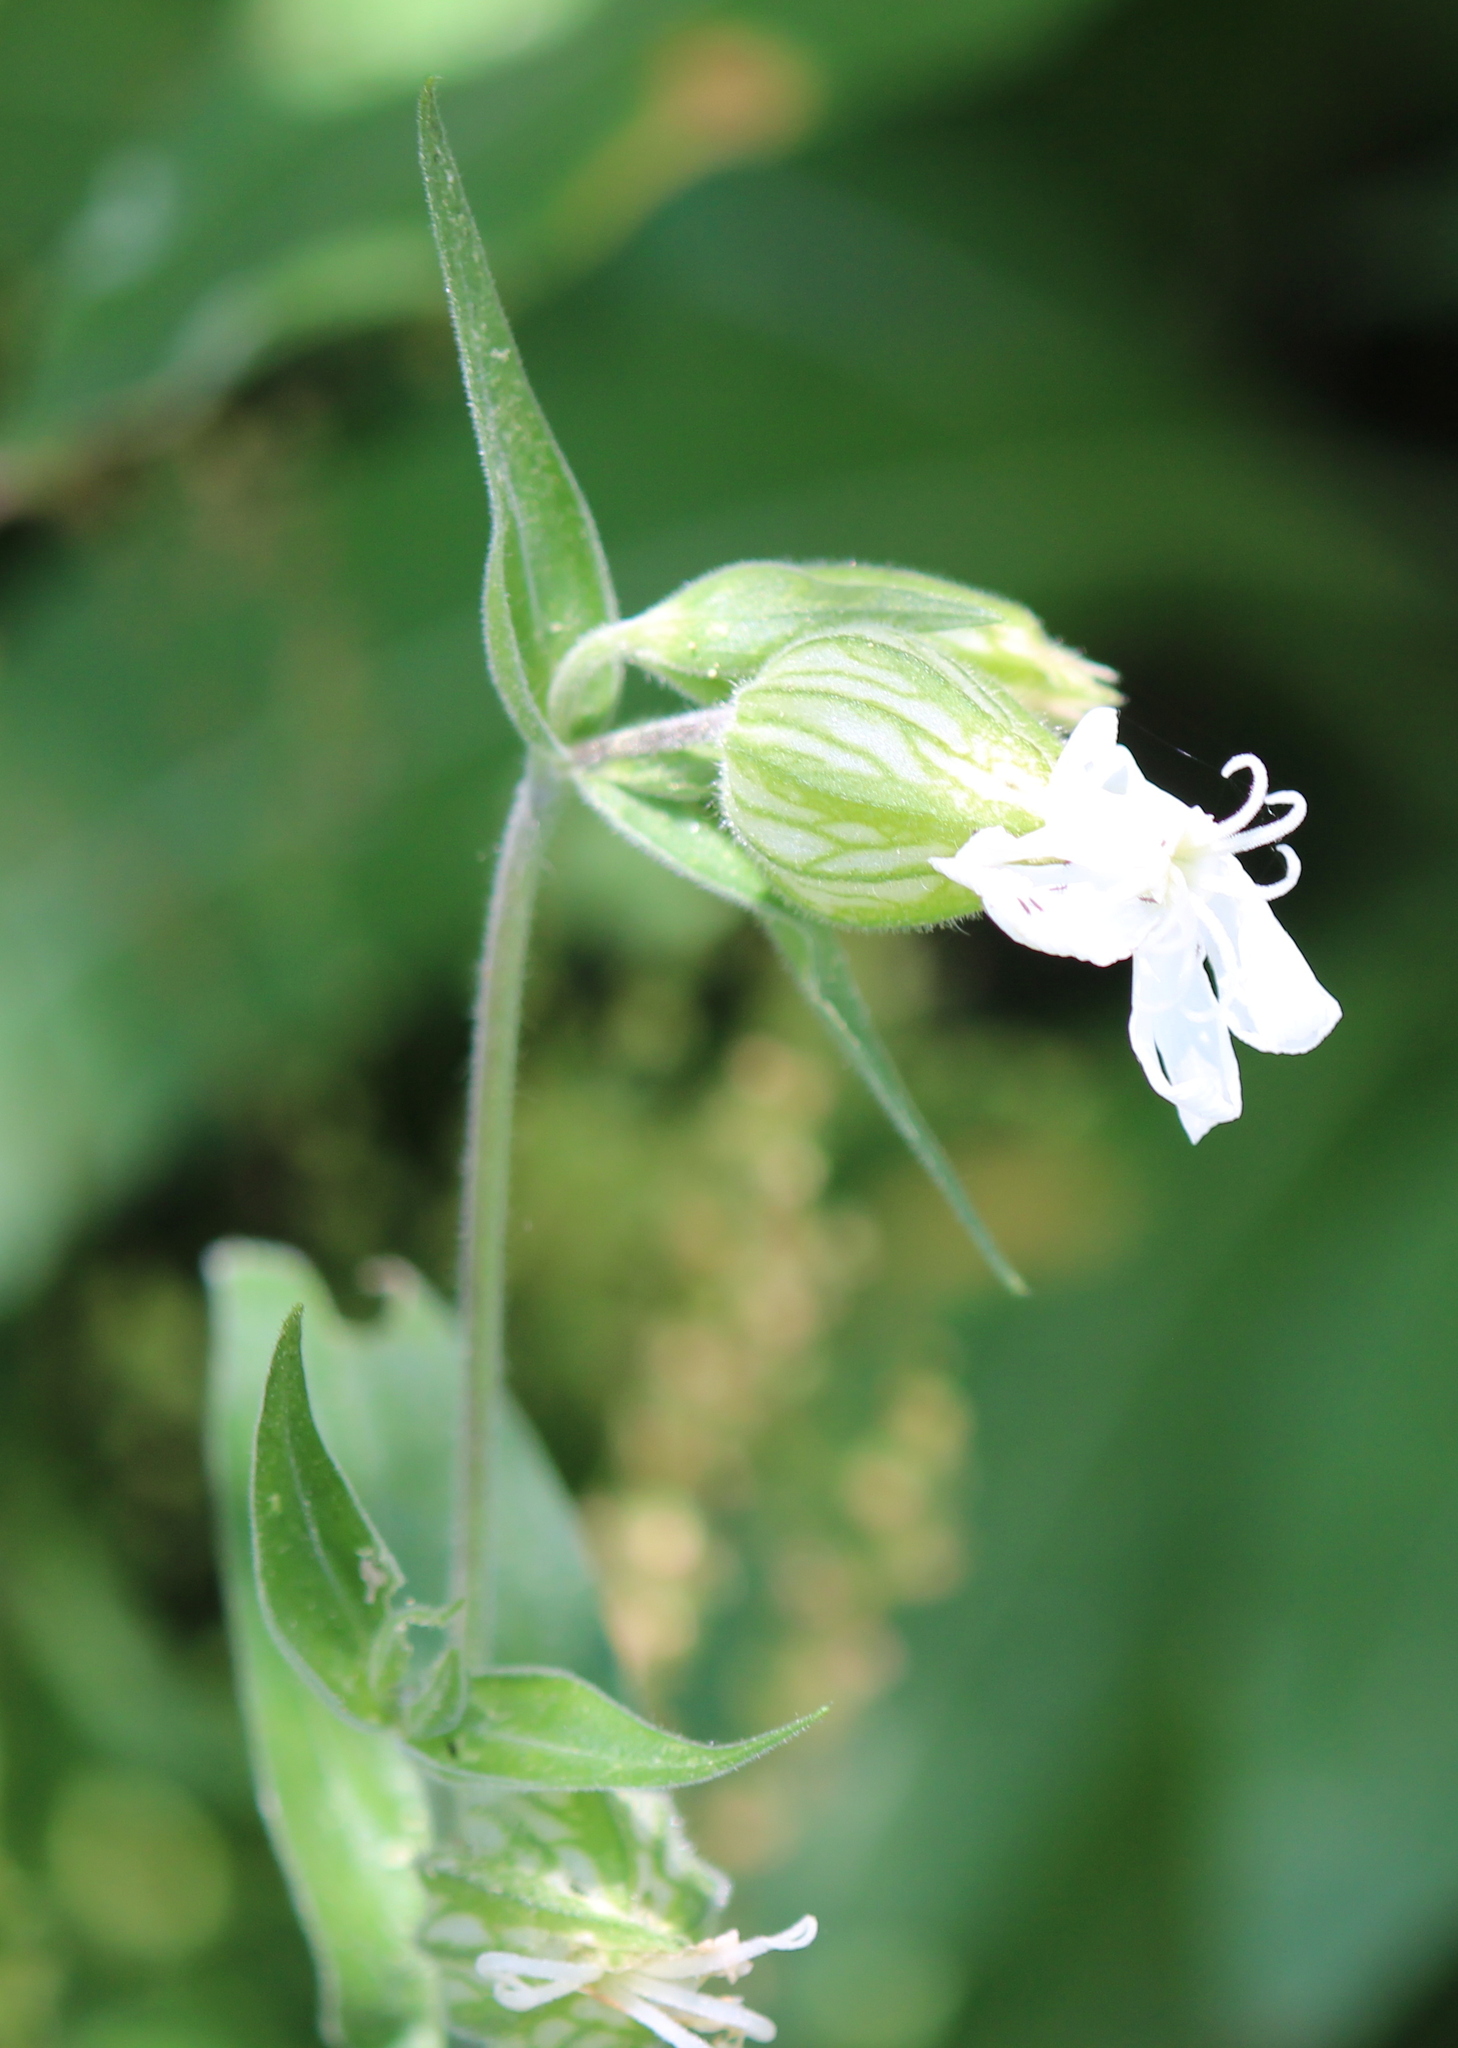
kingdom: Plantae
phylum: Tracheophyta
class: Magnoliopsida
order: Caryophyllales
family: Caryophyllaceae
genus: Silene
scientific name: Silene latifolia
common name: White campion
